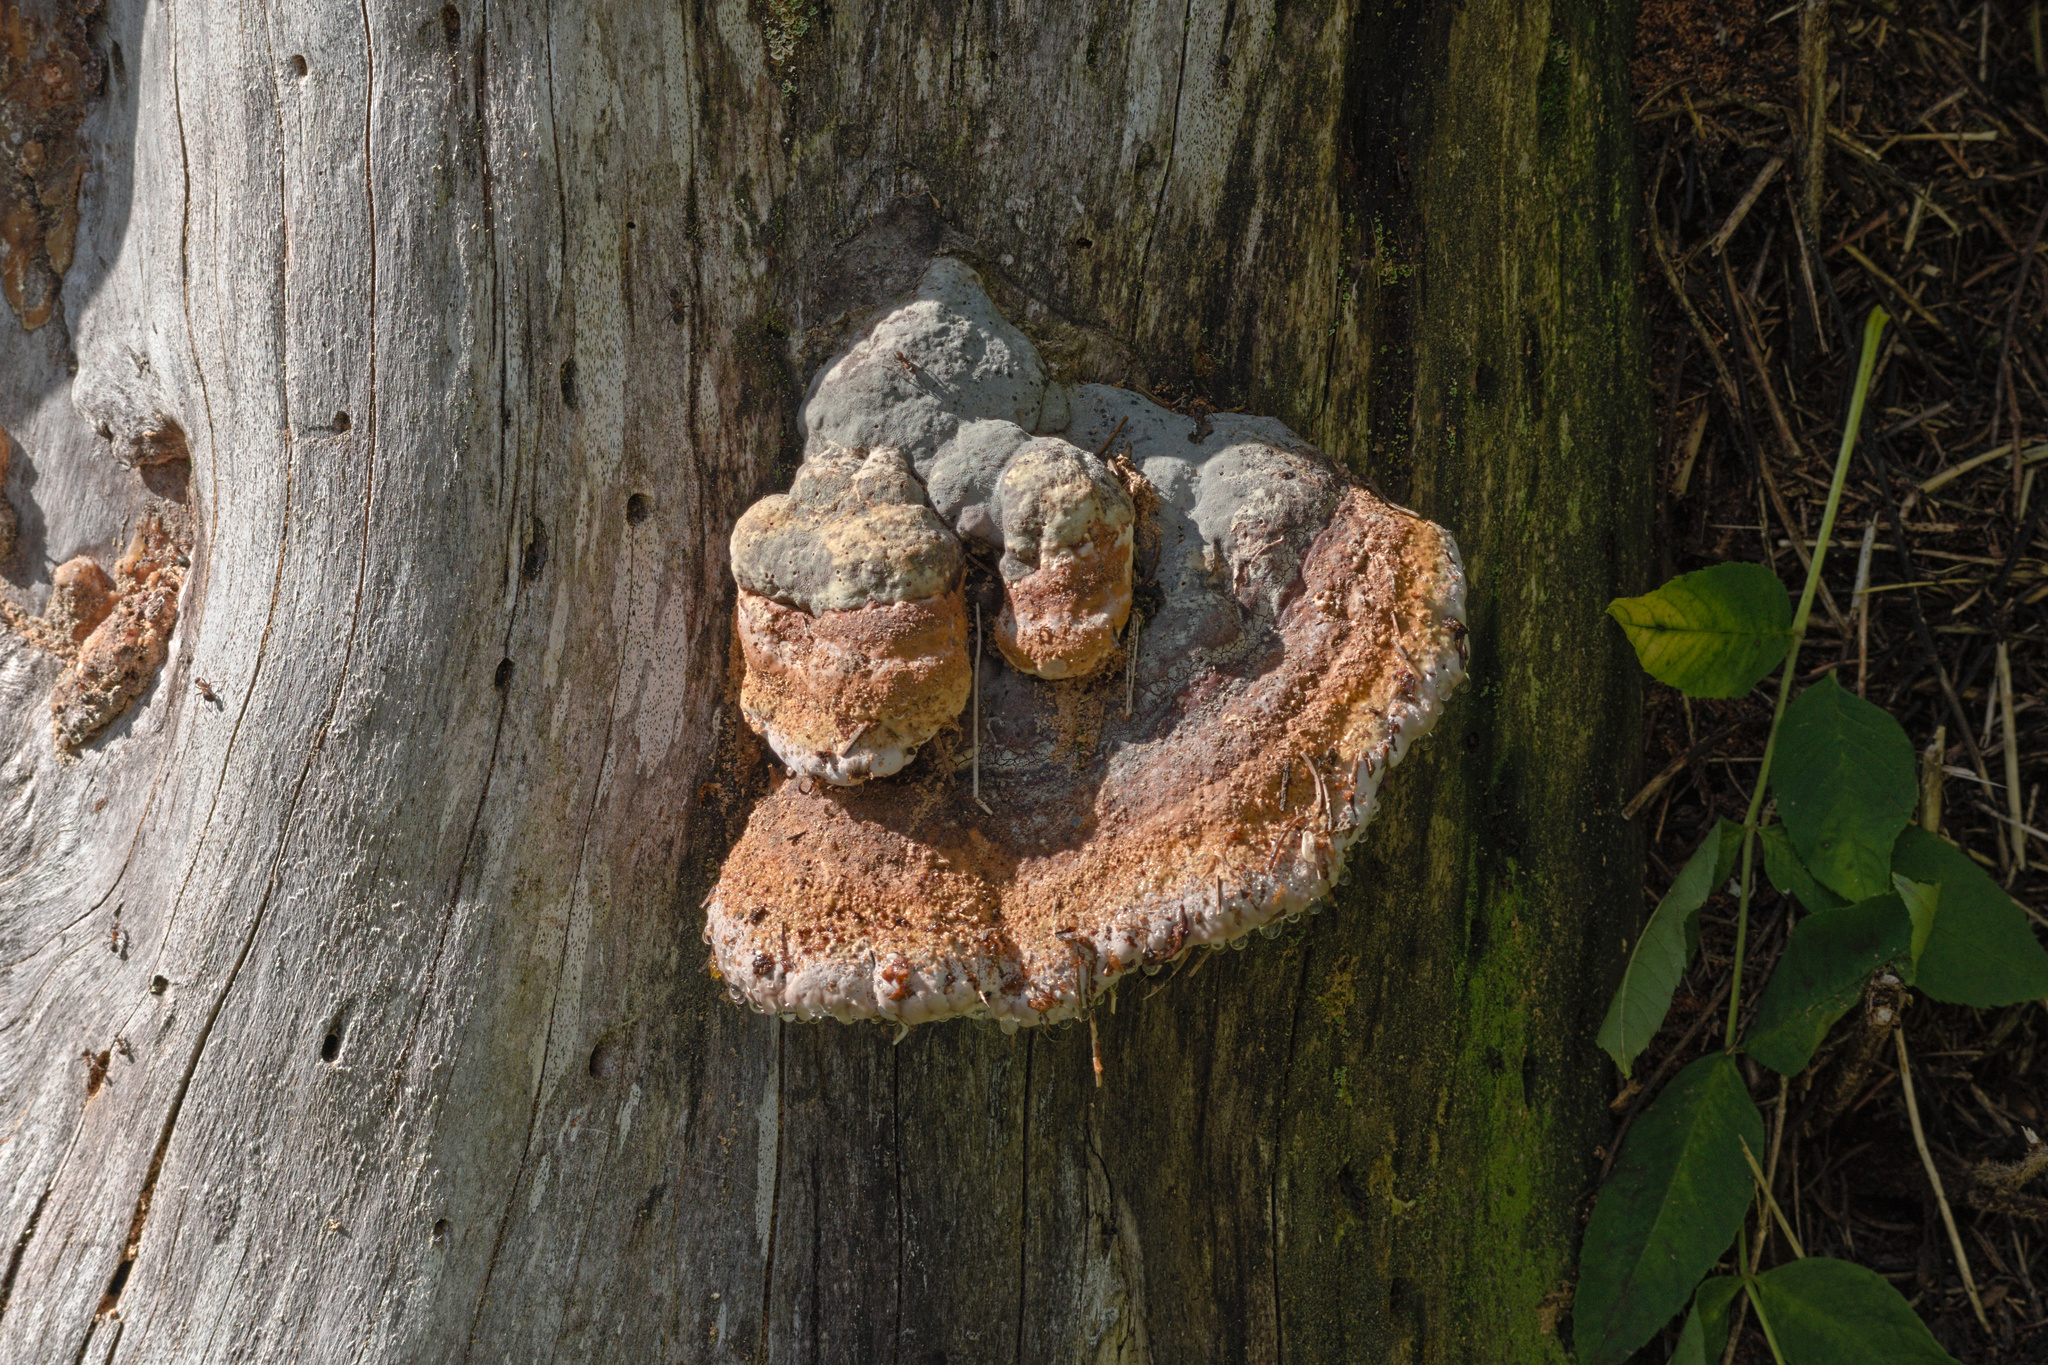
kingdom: Fungi
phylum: Basidiomycota
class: Agaricomycetes
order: Polyporales
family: Fomitopsidaceae
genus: Fomitopsis
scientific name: Fomitopsis pinicola
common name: Red-belted bracket
